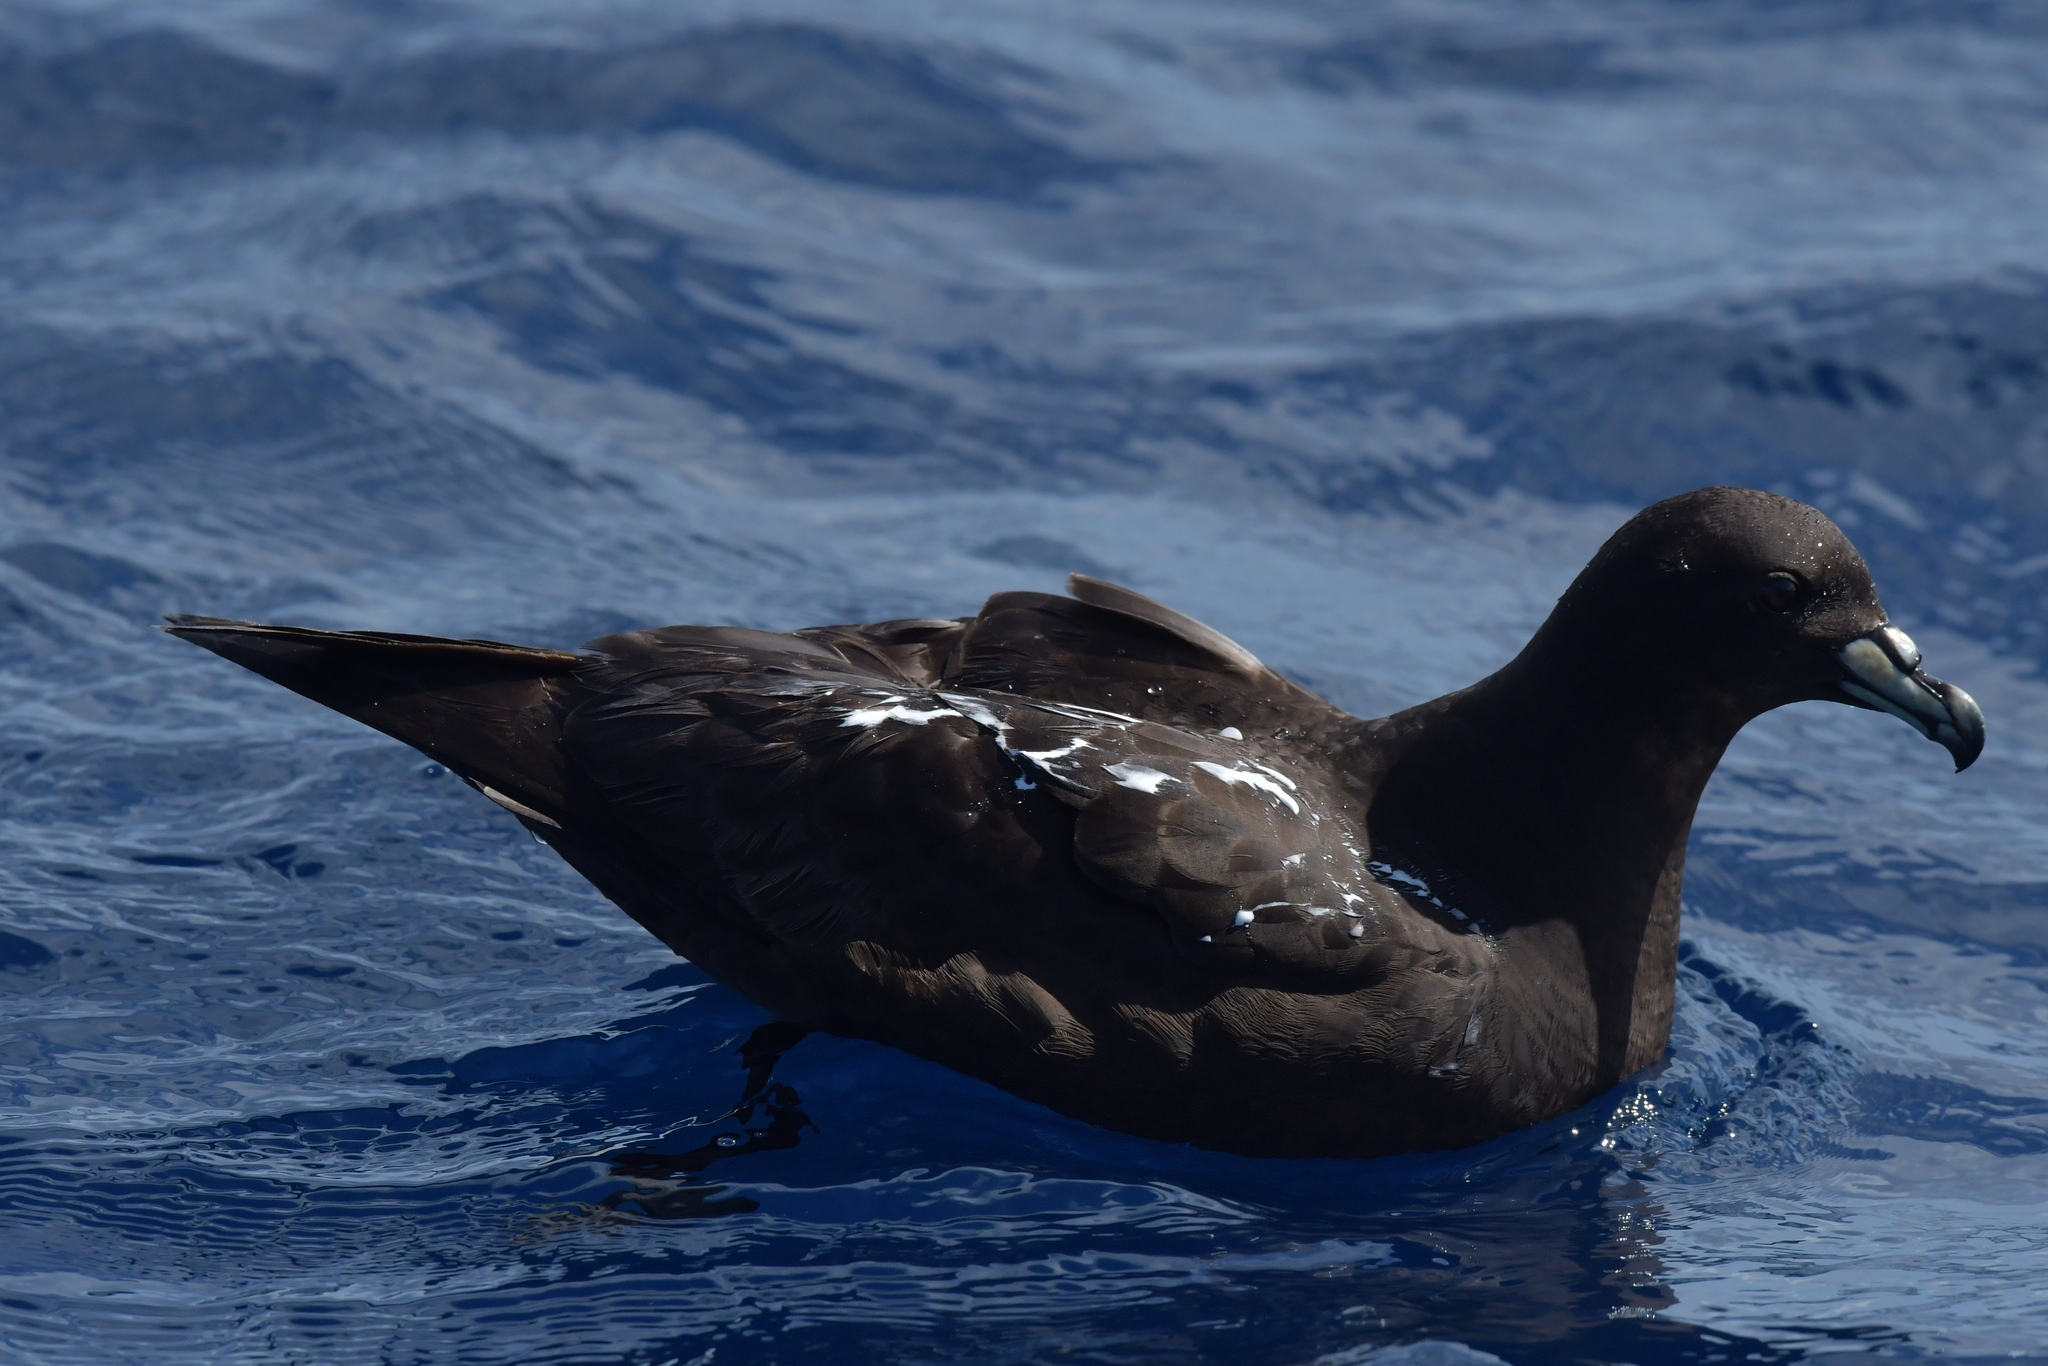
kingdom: Animalia
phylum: Chordata
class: Aves
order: Procellariiformes
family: Procellariidae
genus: Procellaria
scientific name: Procellaria parkinsoni
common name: Black petrel
